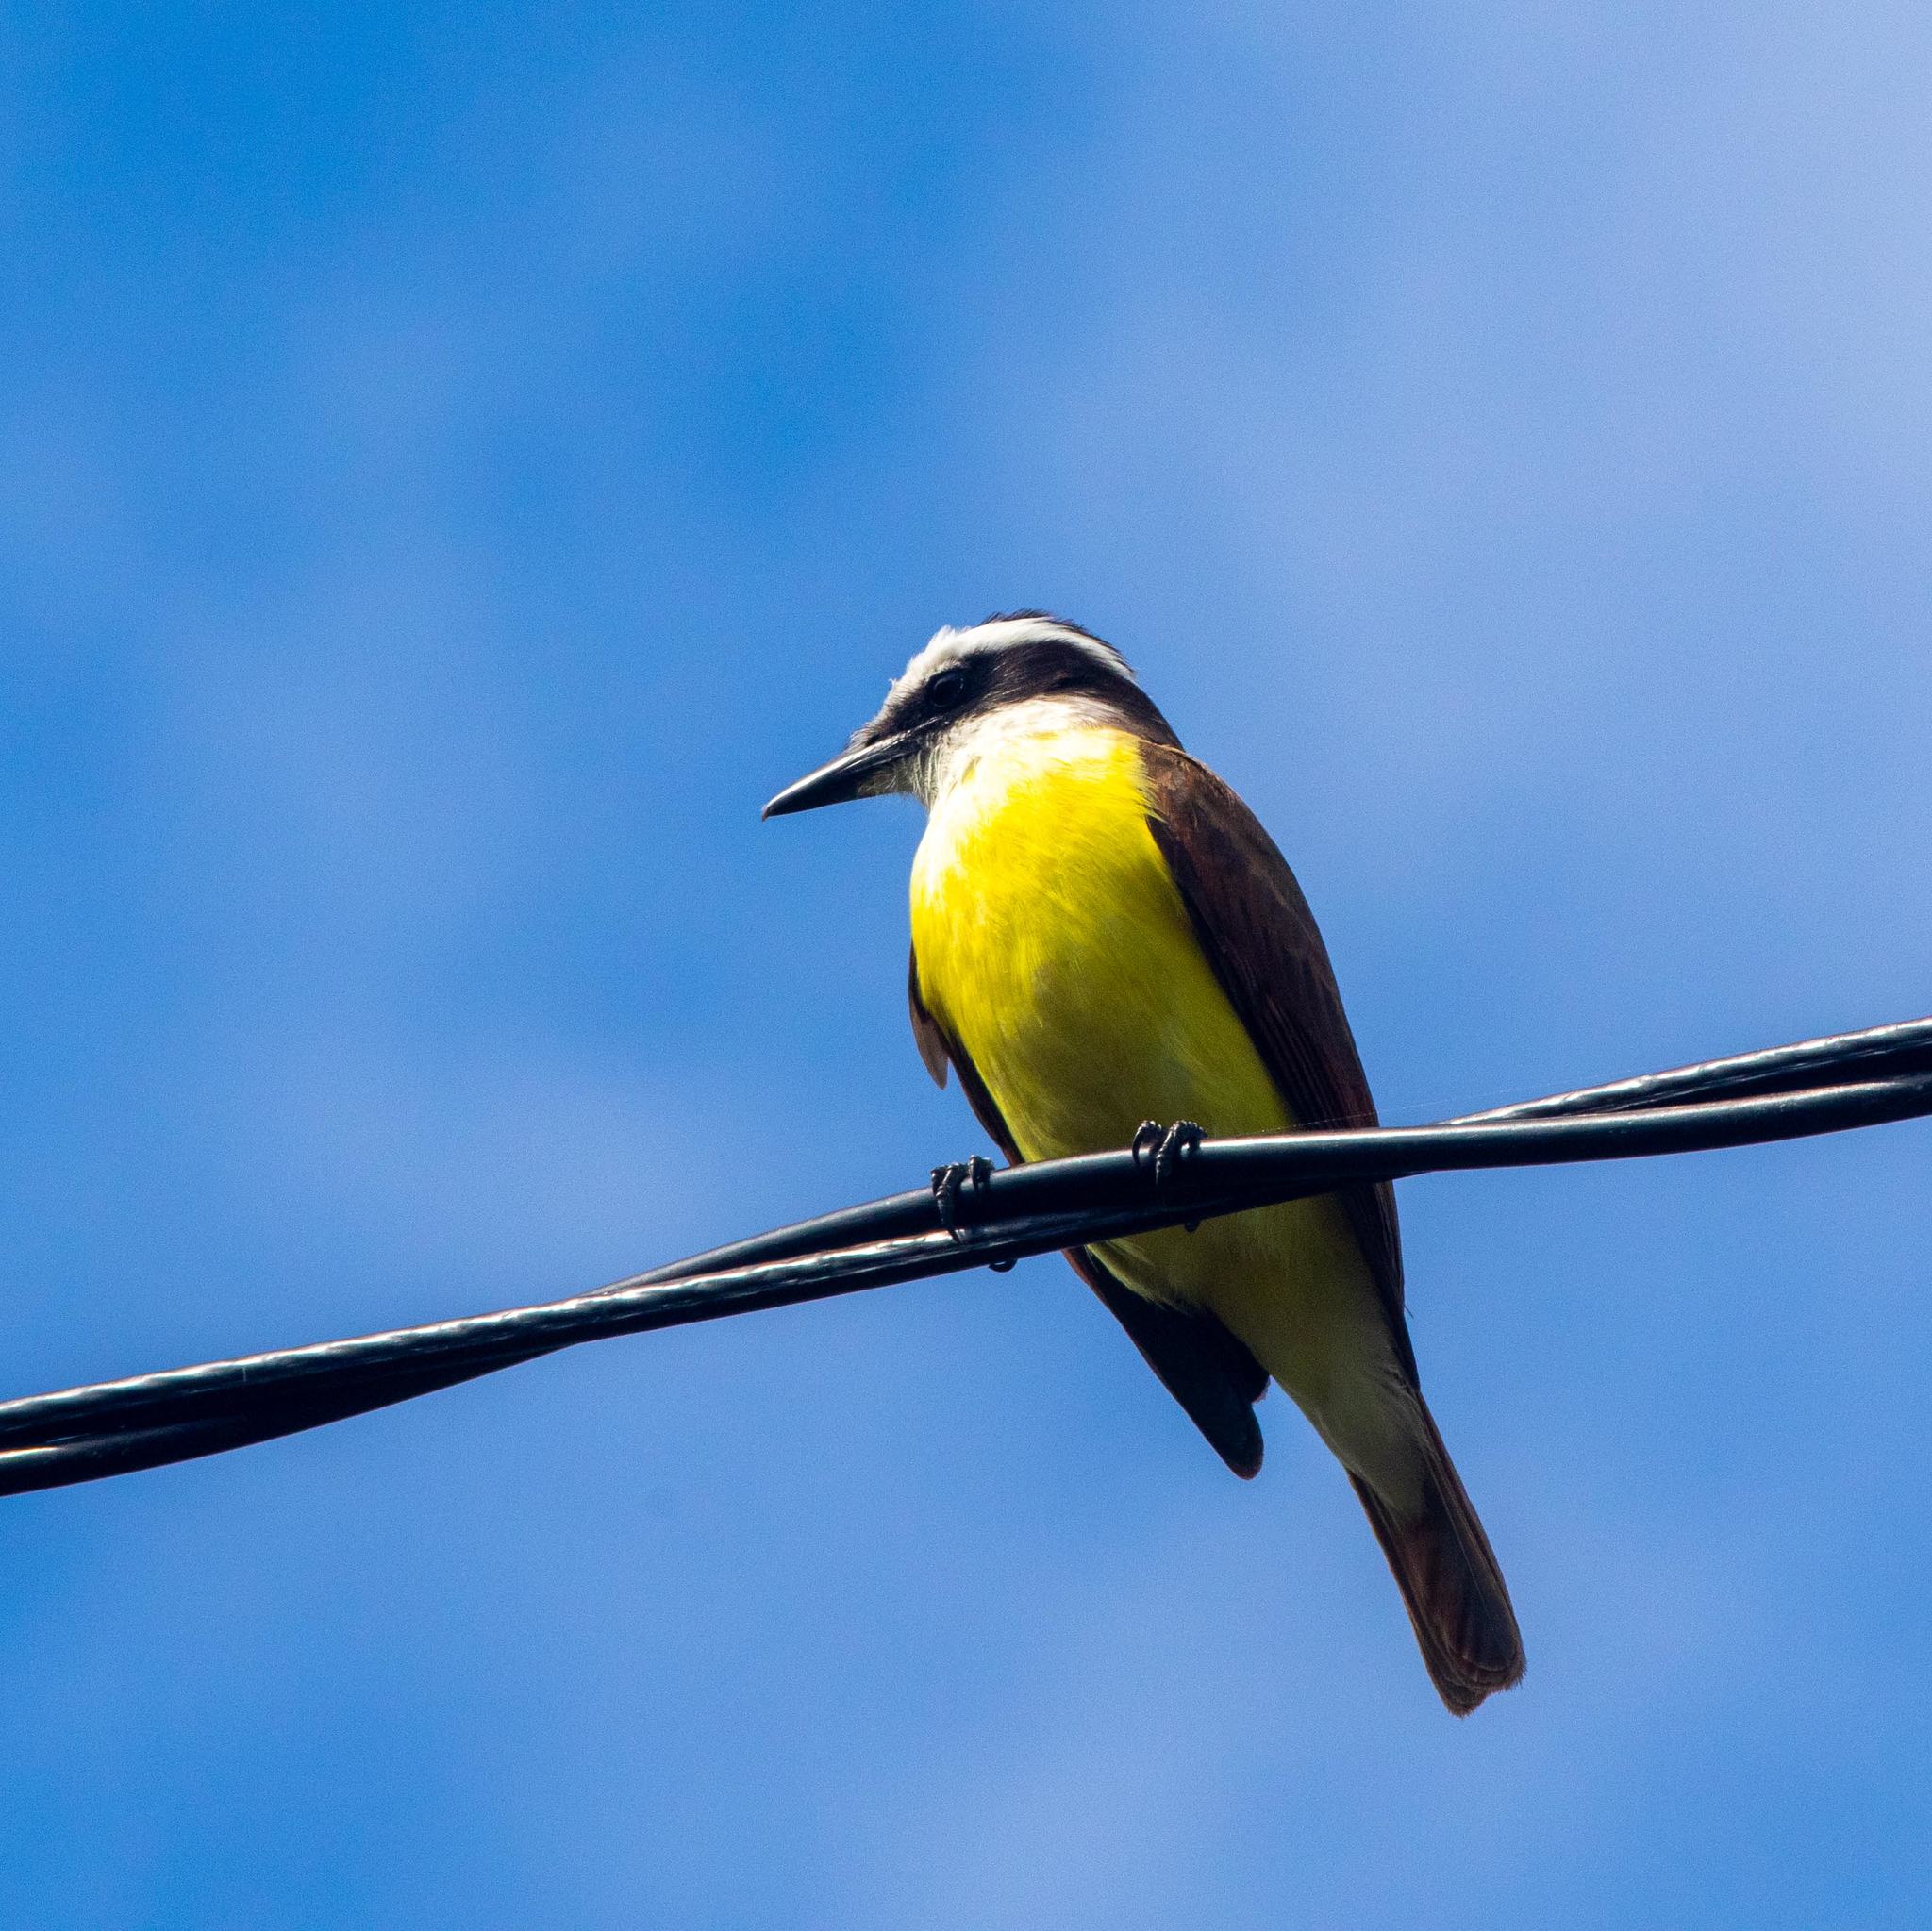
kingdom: Animalia
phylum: Chordata
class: Aves
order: Passeriformes
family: Tyrannidae
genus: Pitangus
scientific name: Pitangus sulphuratus
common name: Great kiskadee
